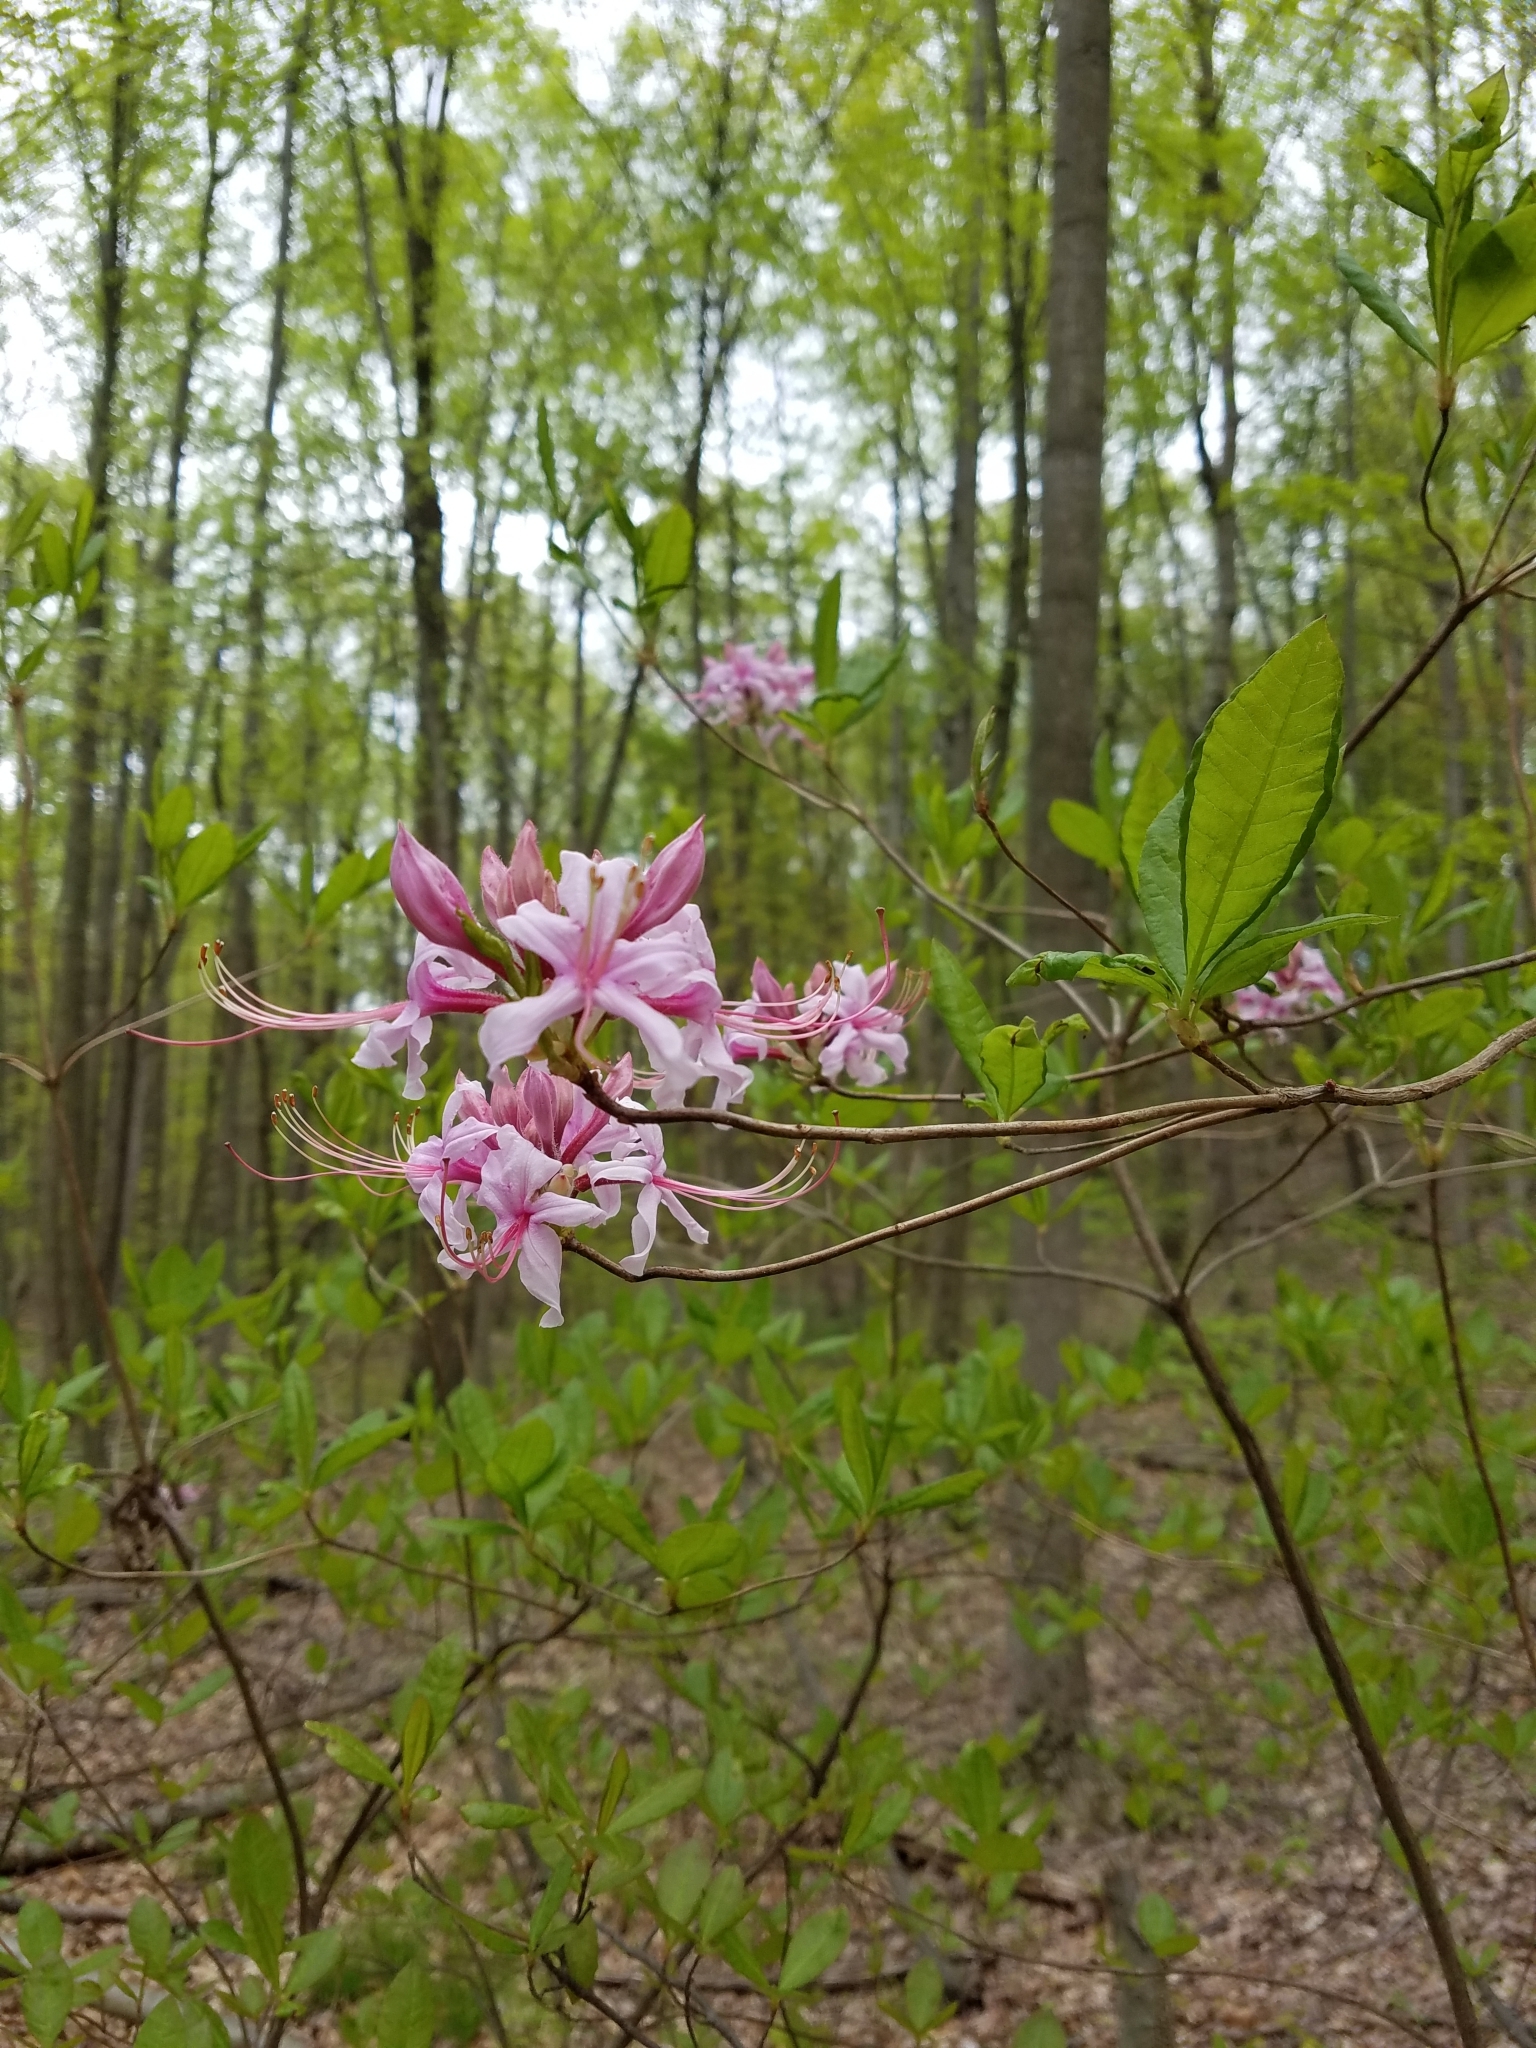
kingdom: Plantae
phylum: Tracheophyta
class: Magnoliopsida
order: Ericales
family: Ericaceae
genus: Rhododendron
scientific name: Rhododendron periclymenoides
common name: Election-pink
